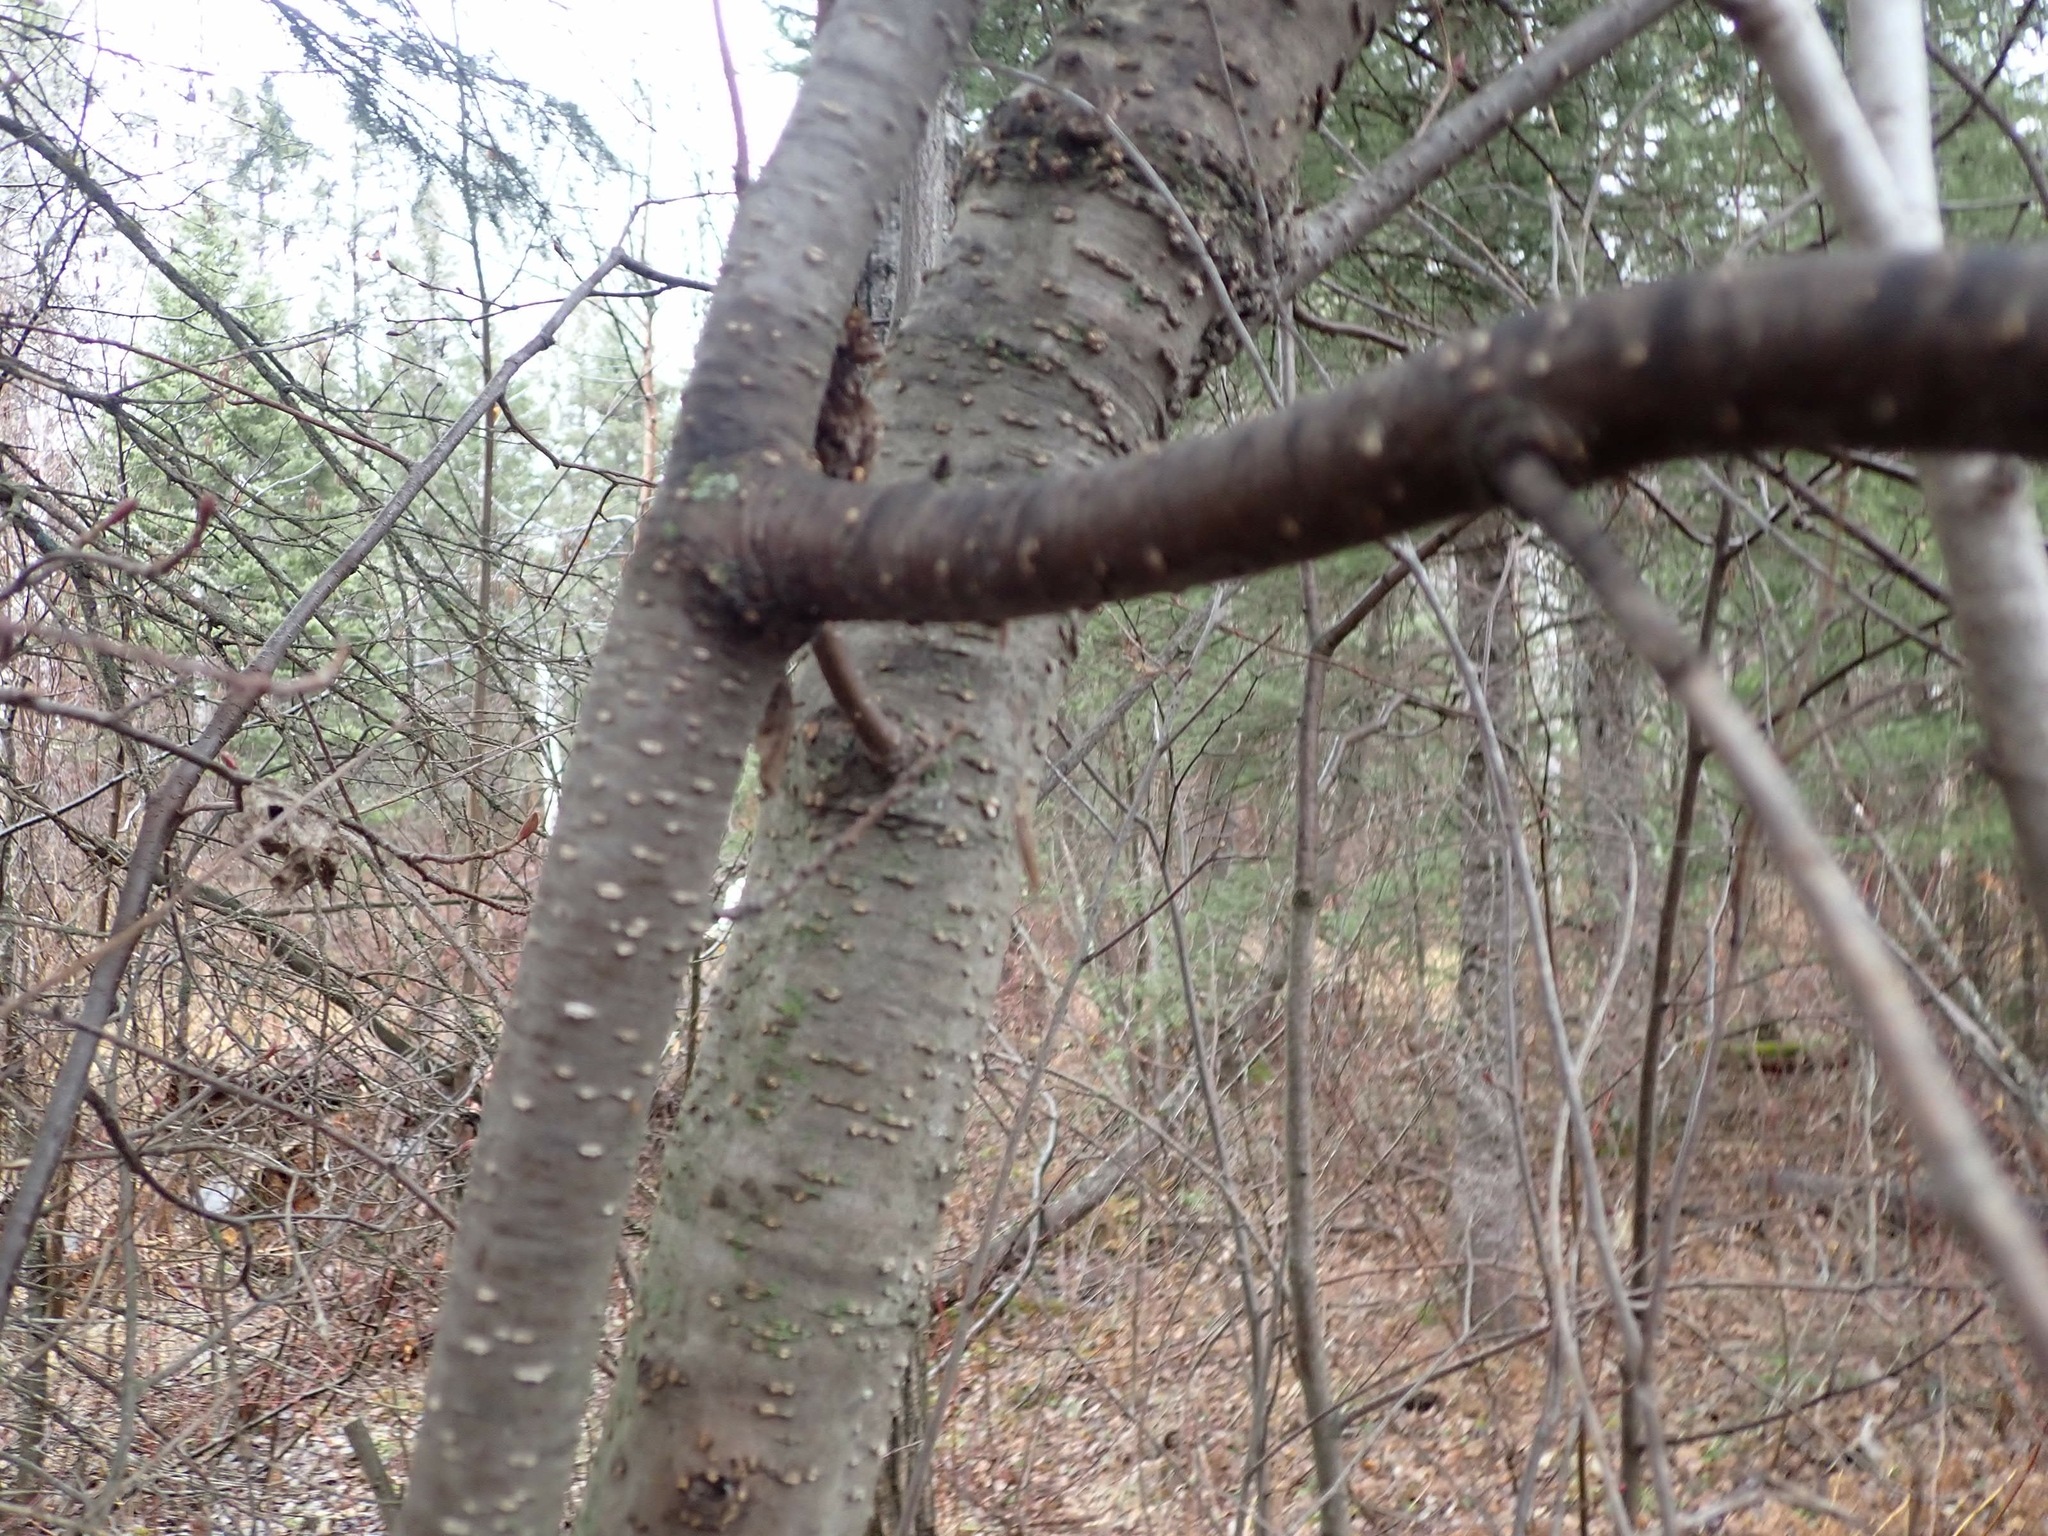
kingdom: Plantae
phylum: Tracheophyta
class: Magnoliopsida
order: Fagales
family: Betulaceae
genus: Alnus
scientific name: Alnus incana
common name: Grey alder
